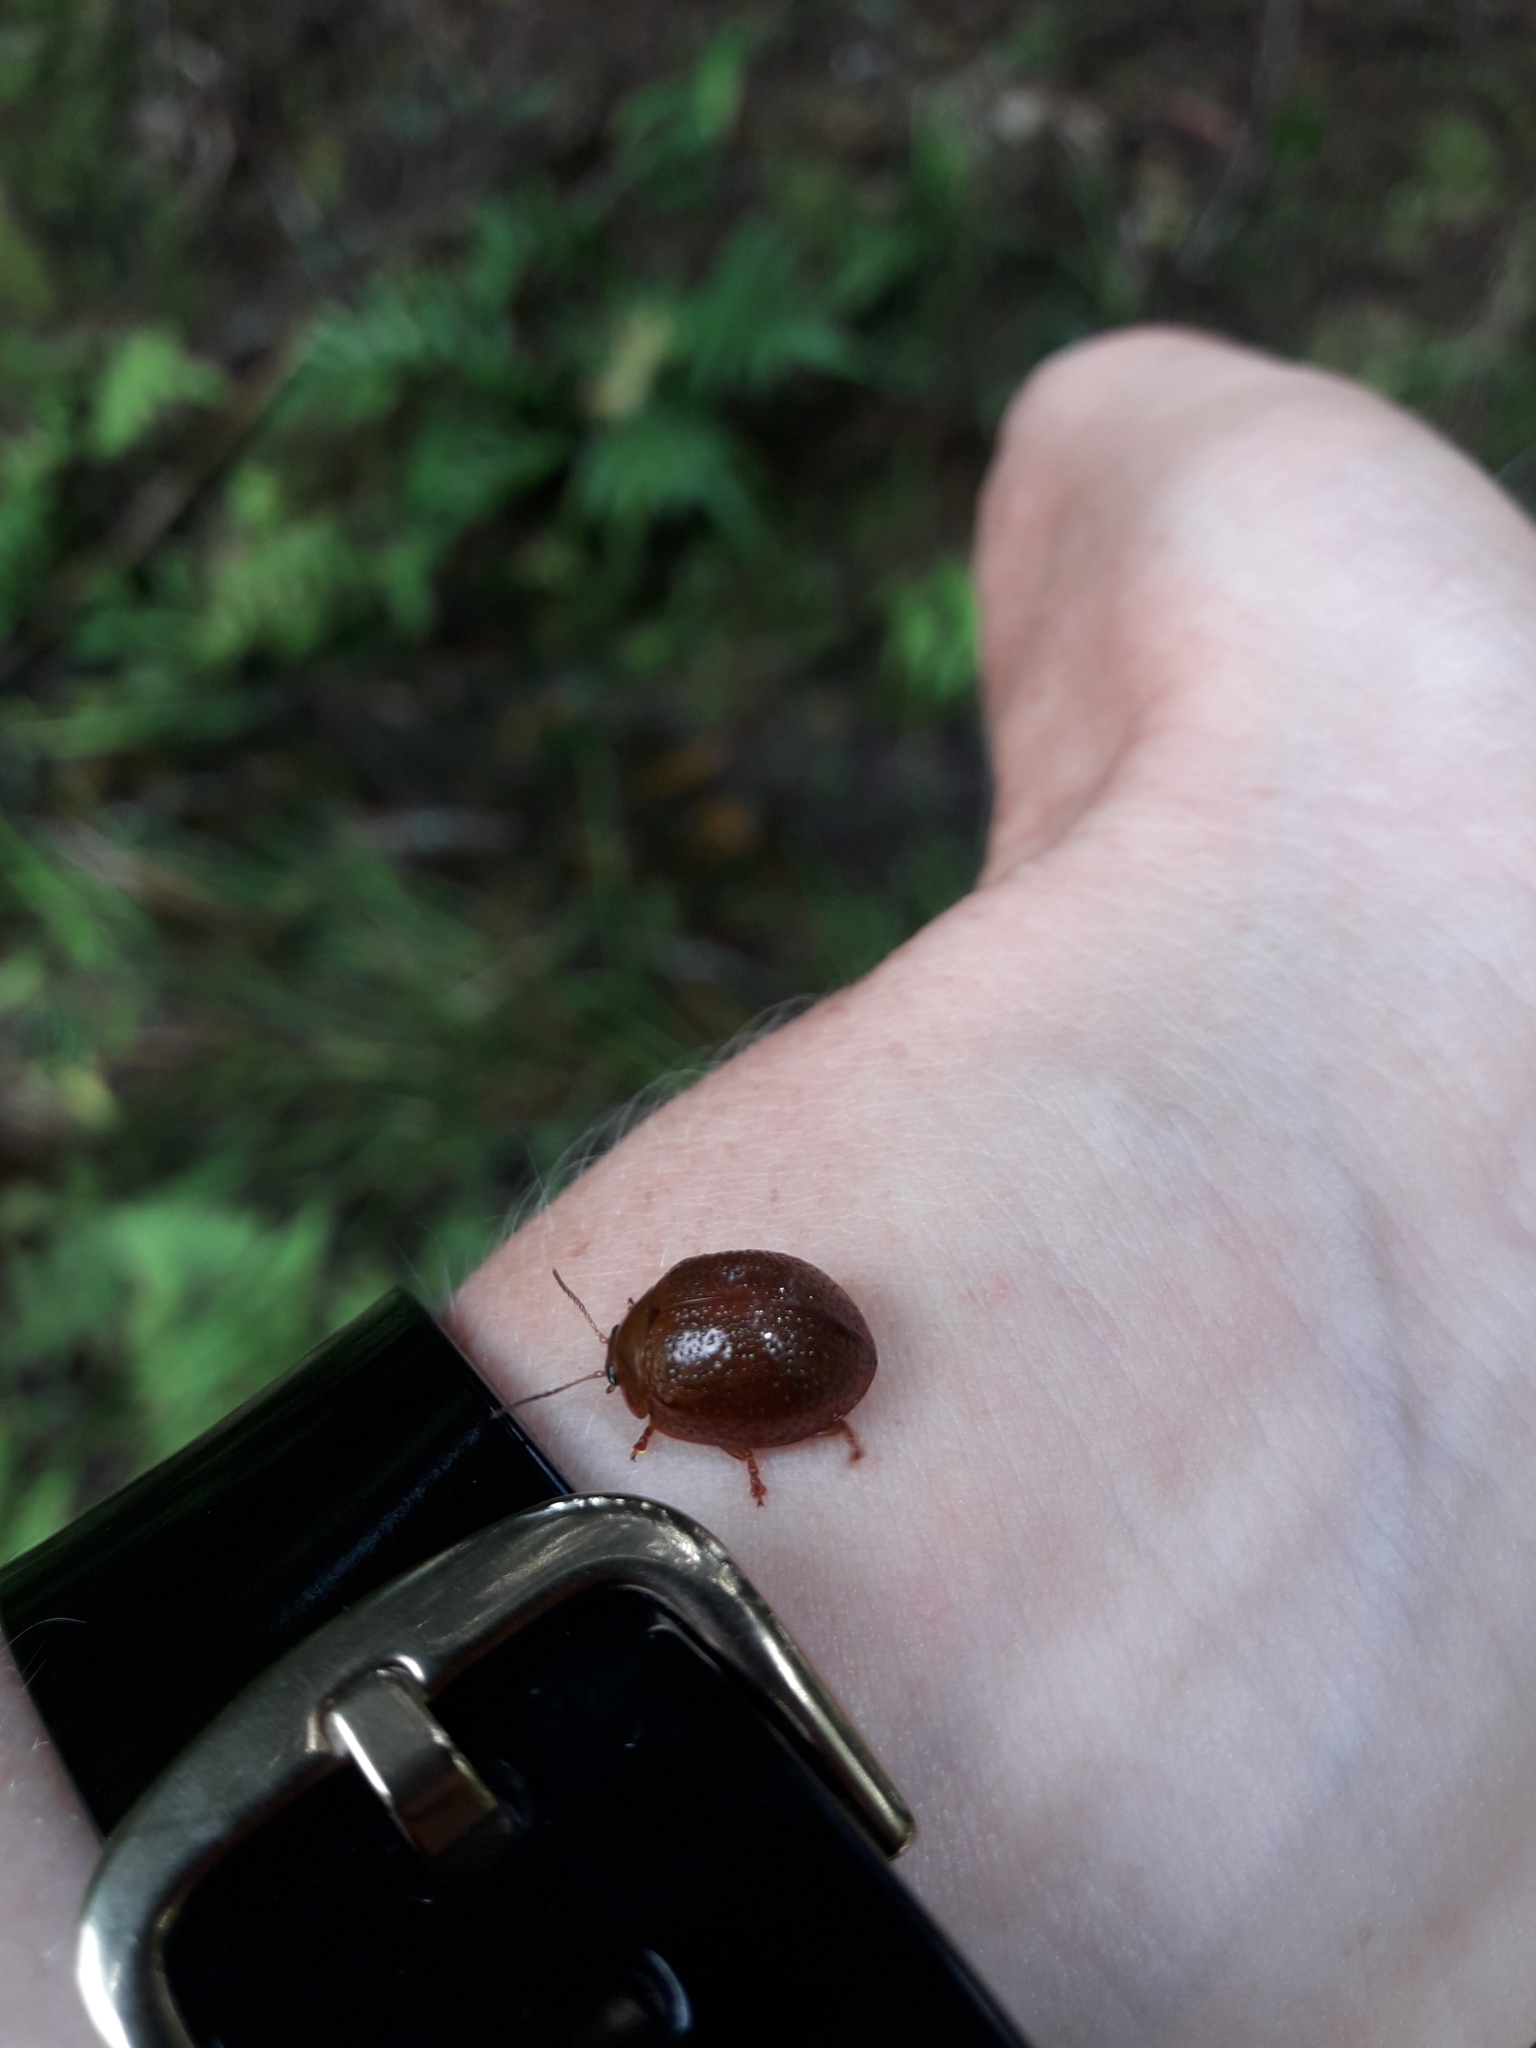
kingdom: Animalia
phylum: Arthropoda
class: Insecta
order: Coleoptera
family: Chrysomelidae
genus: Dicranosterna
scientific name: Dicranosterna
